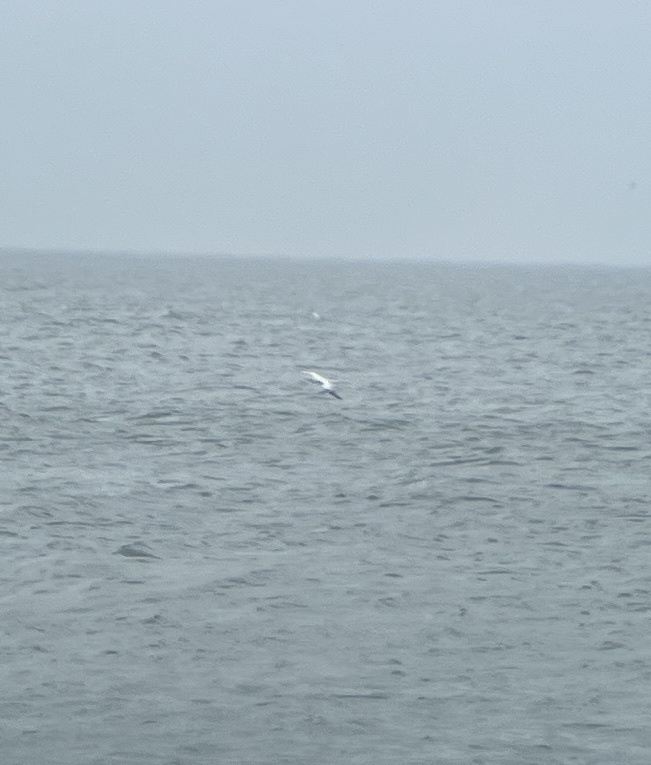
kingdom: Animalia
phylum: Chordata
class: Aves
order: Suliformes
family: Sulidae
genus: Morus
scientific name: Morus bassanus
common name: Northern gannet
